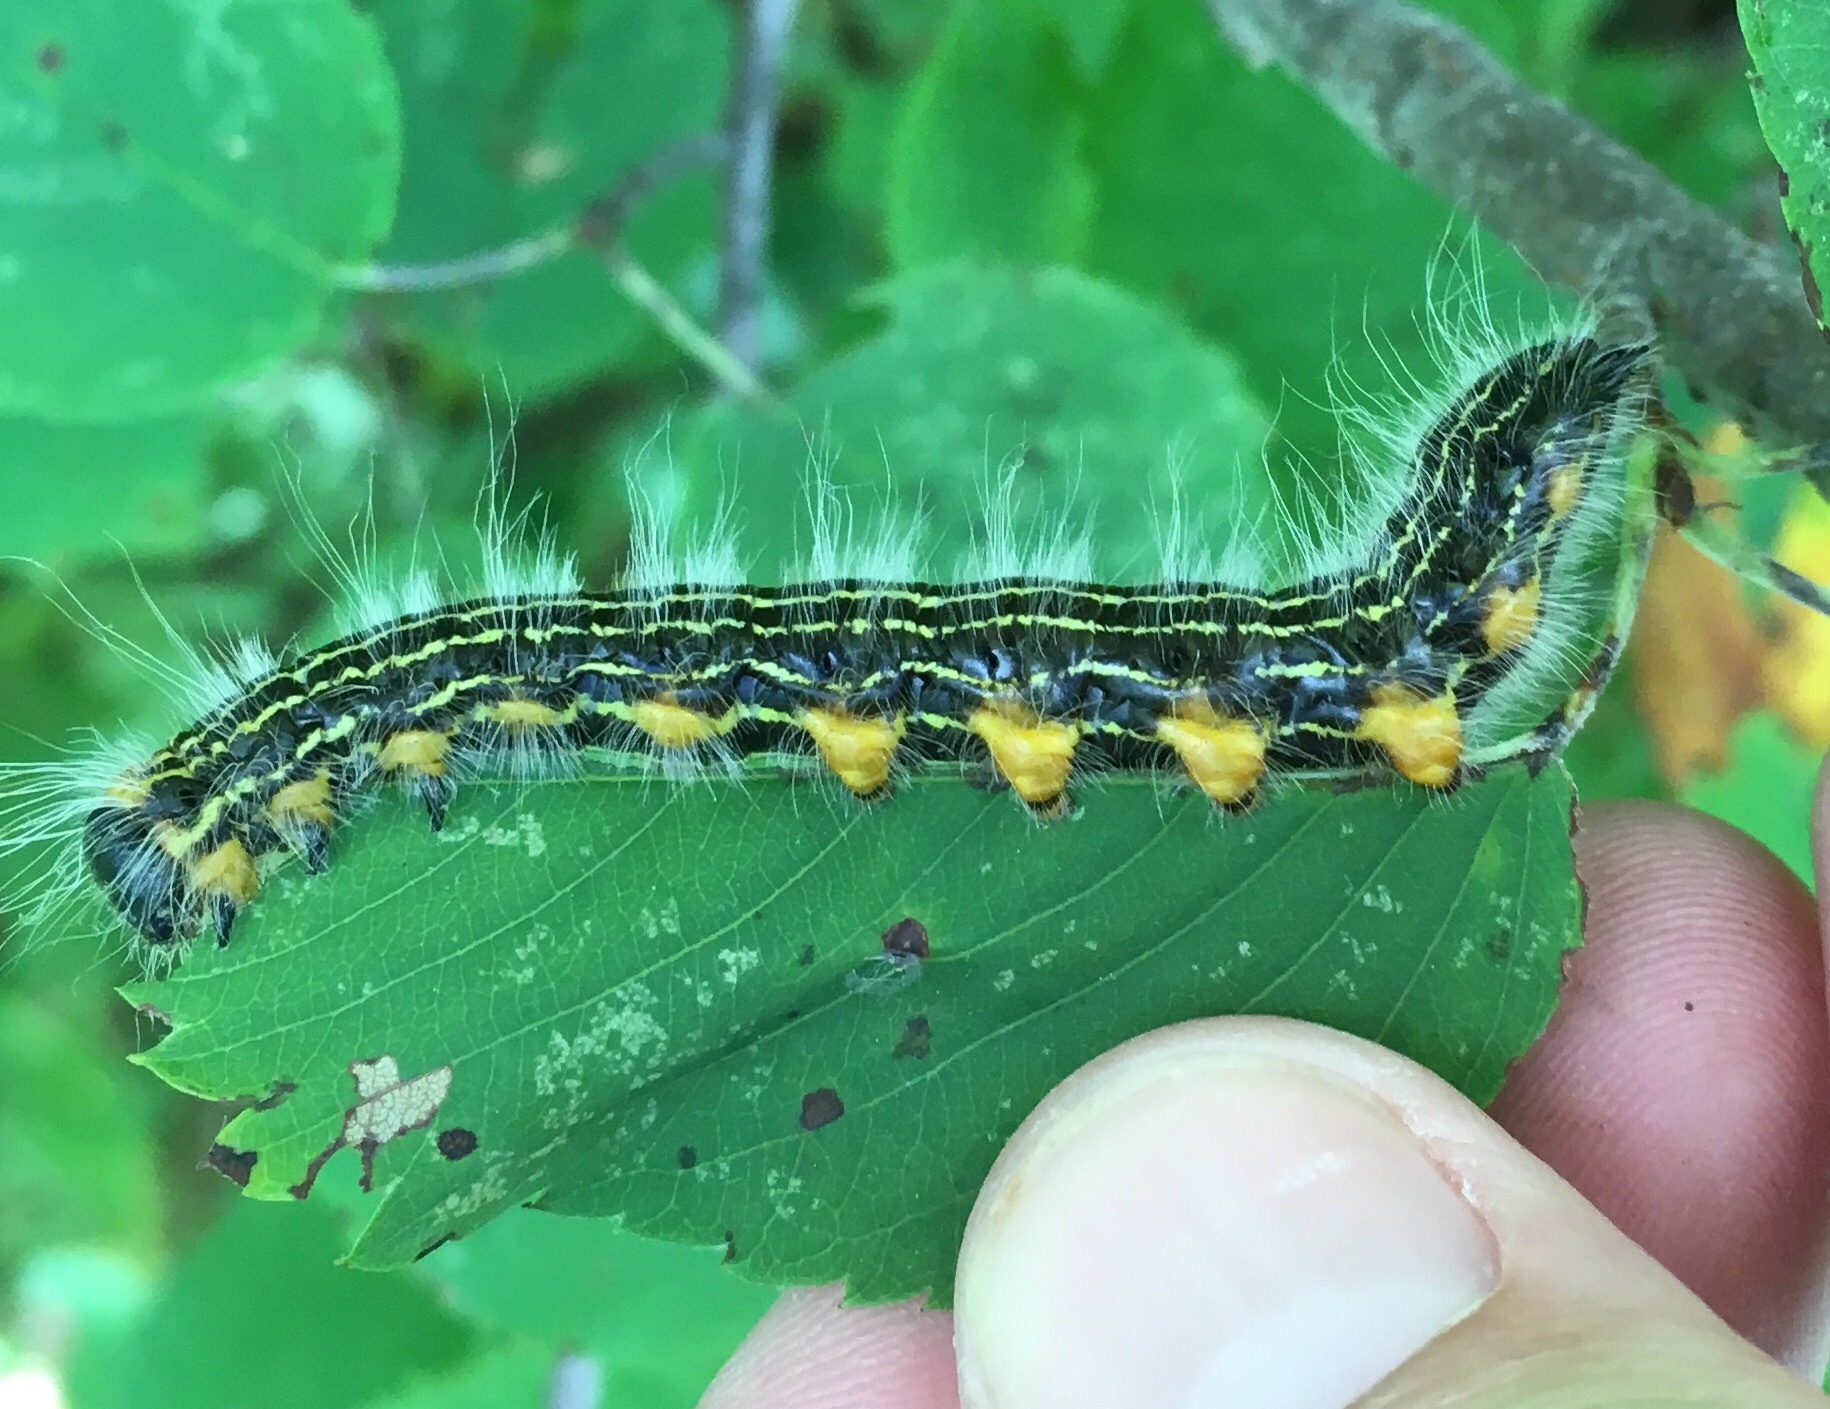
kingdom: Animalia
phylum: Arthropoda
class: Insecta
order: Lepidoptera
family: Notodontidae
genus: Datana
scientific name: Datana ministra
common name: Yellow-necked caterpillar moth
